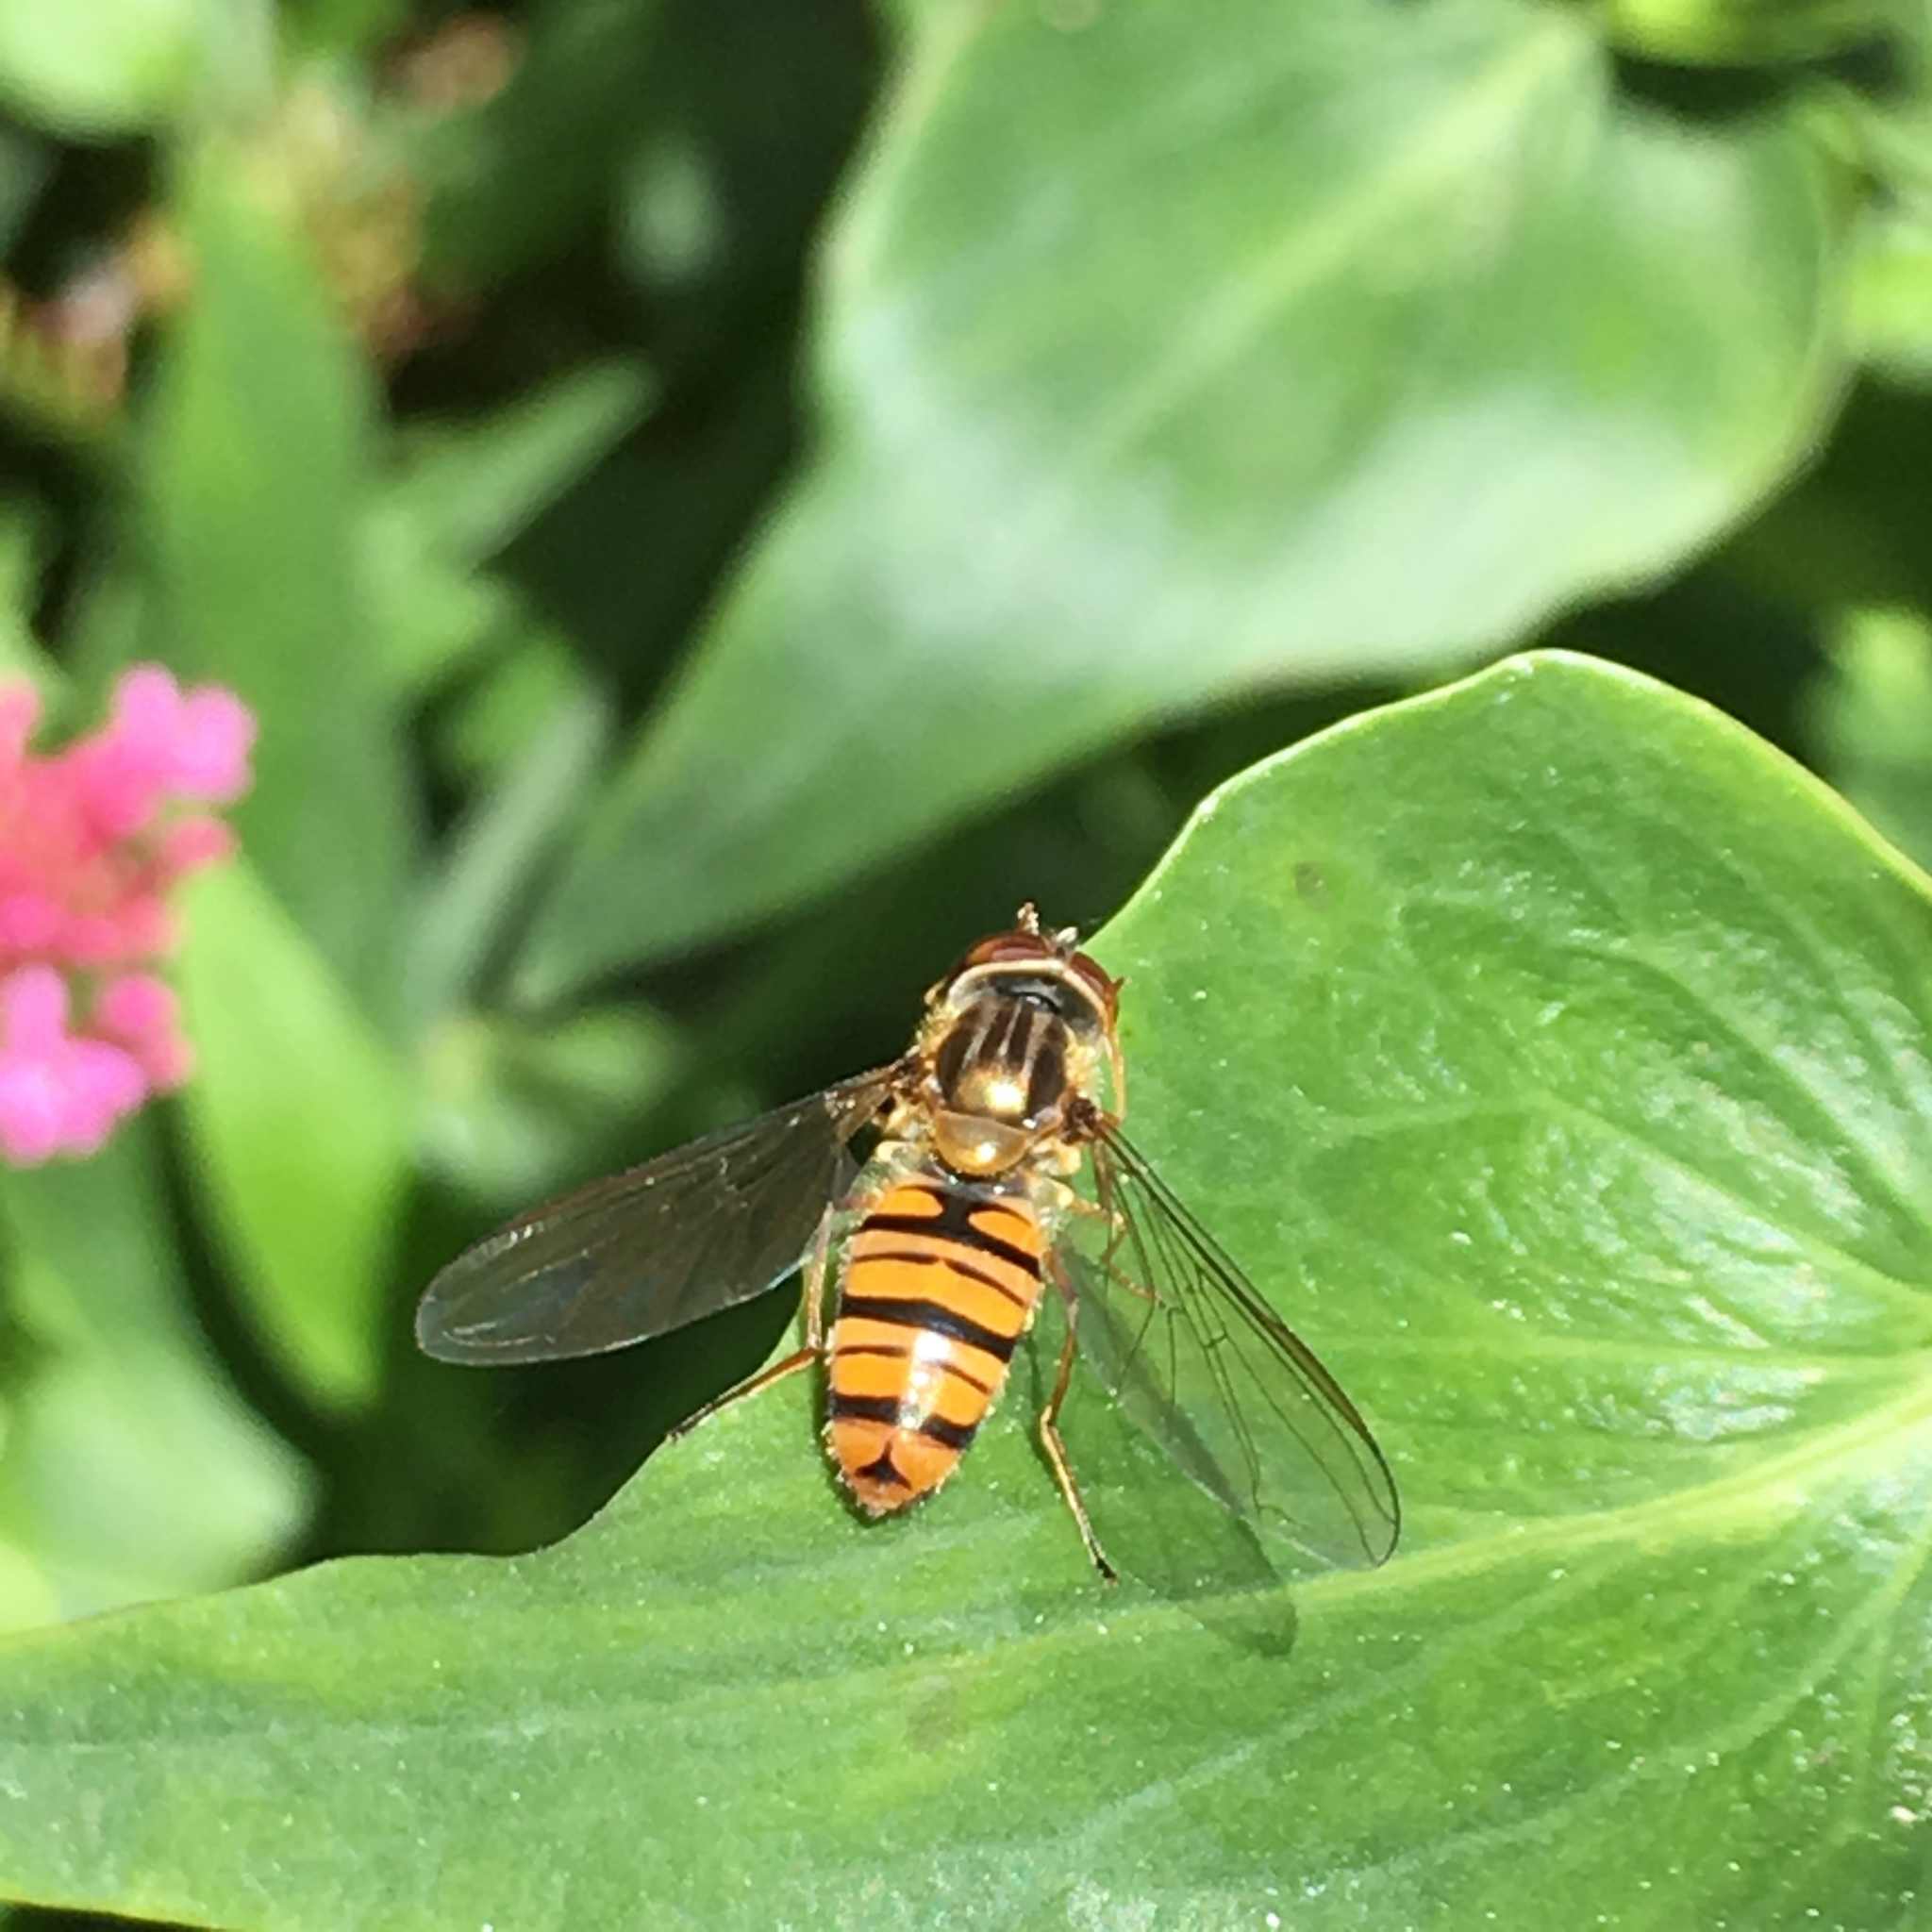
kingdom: Animalia
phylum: Arthropoda
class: Insecta
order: Diptera
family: Syrphidae
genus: Episyrphus
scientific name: Episyrphus balteatus
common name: Marmalade hoverfly
